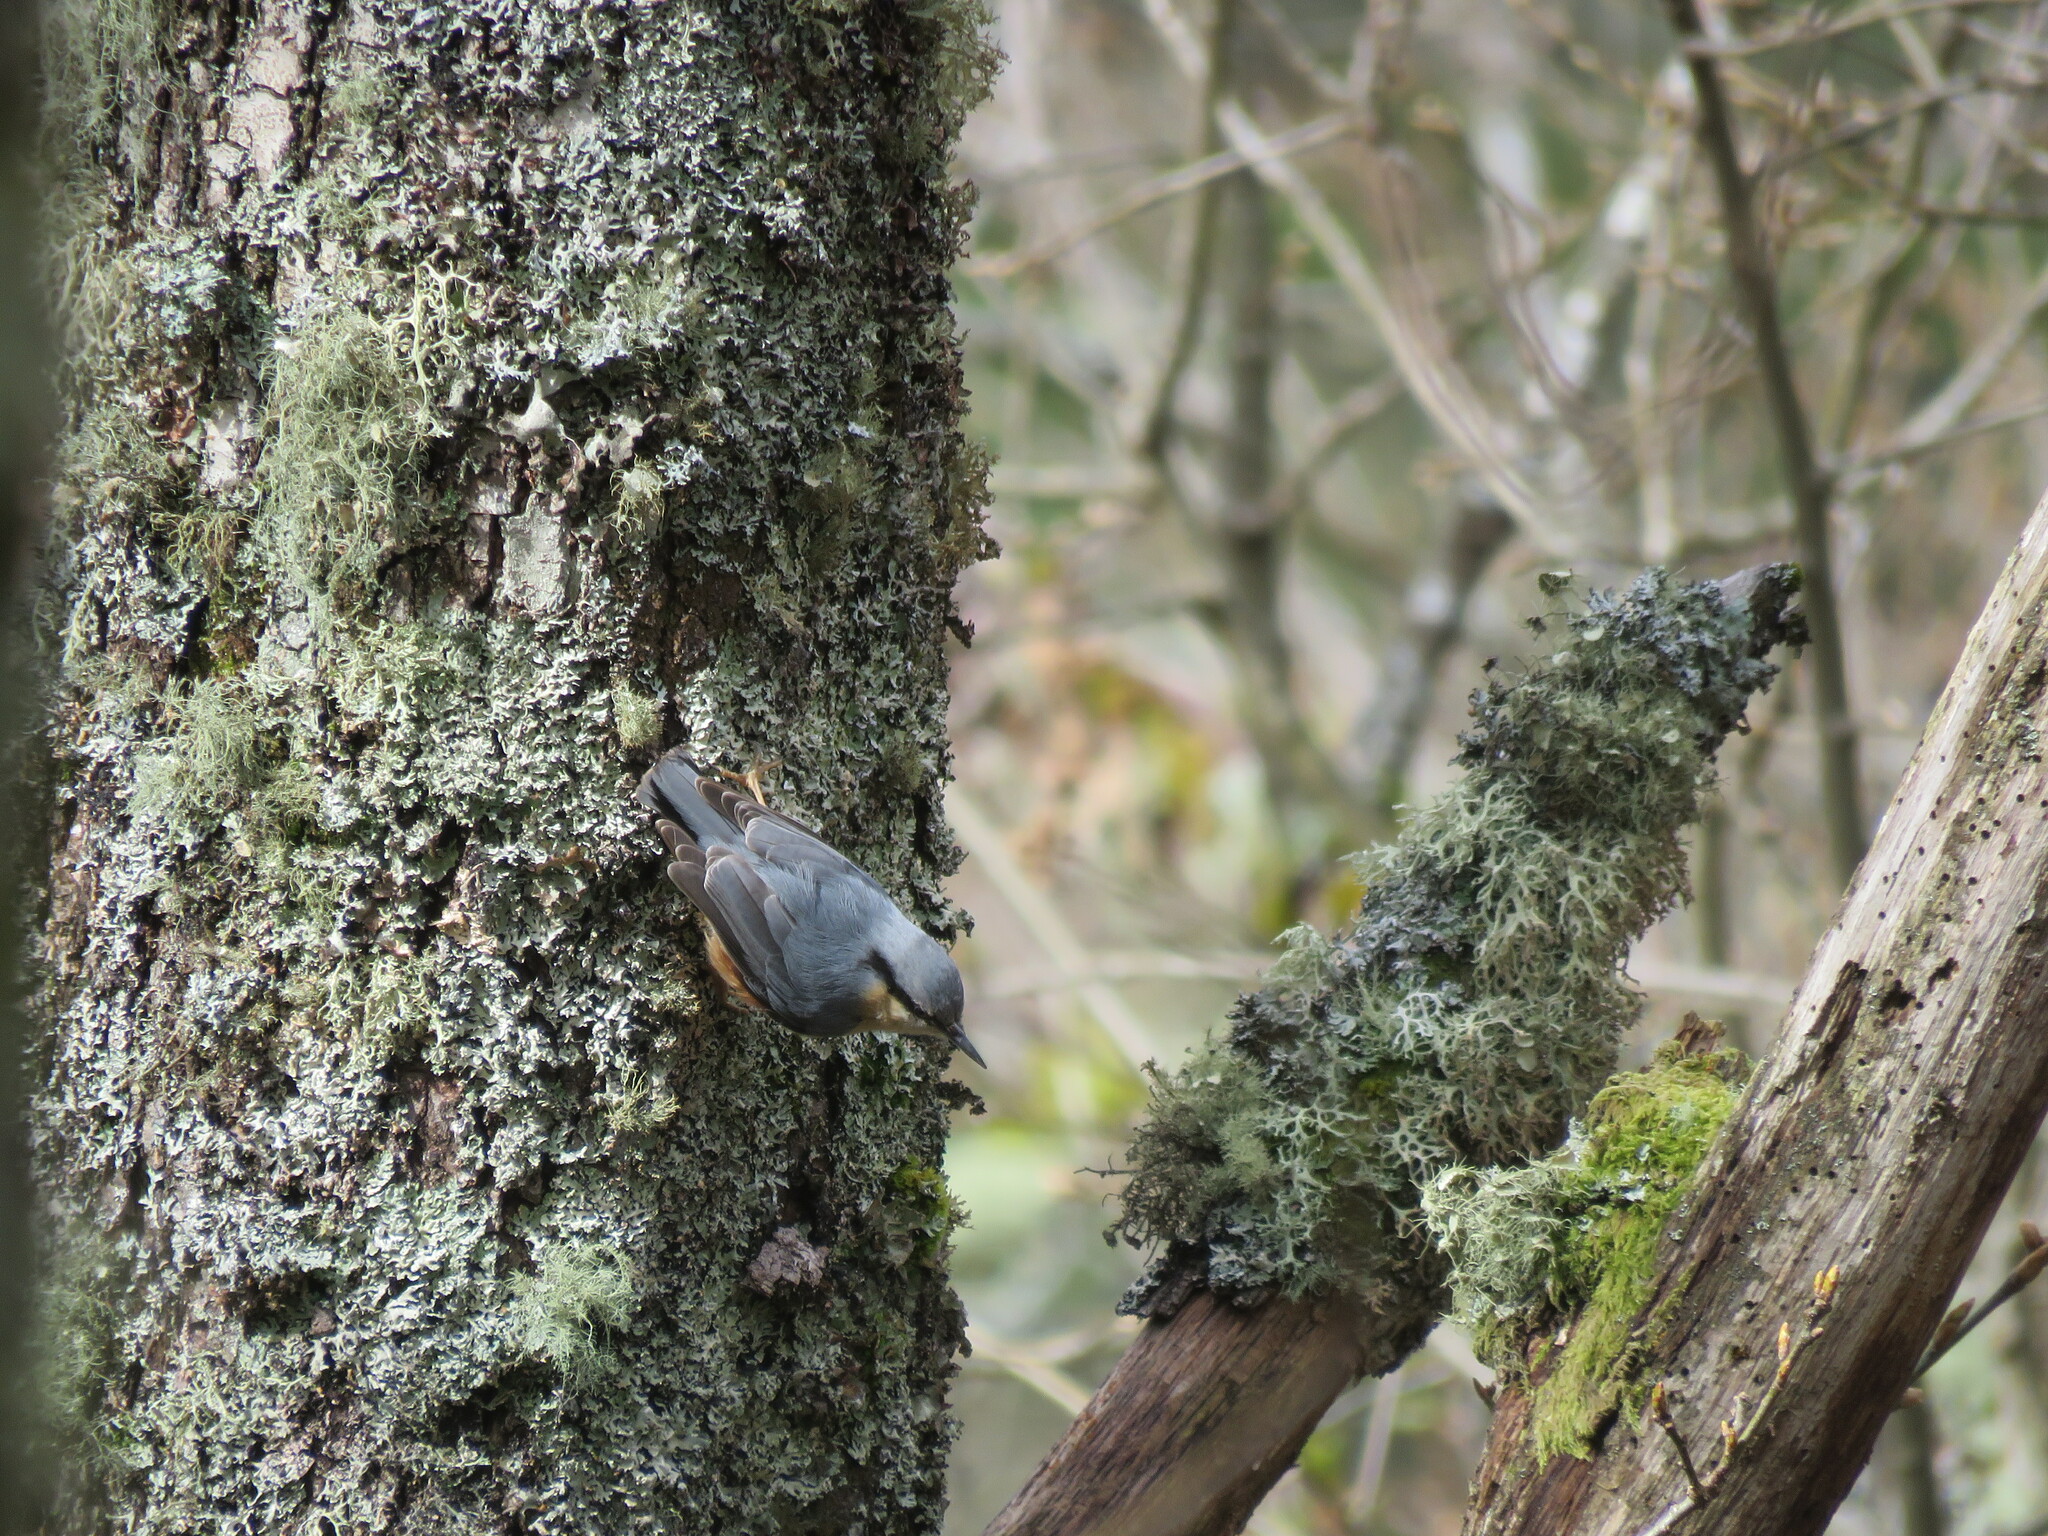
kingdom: Animalia
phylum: Chordata
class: Aves
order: Passeriformes
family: Sittidae
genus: Sitta
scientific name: Sitta europaea
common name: Eurasian nuthatch
